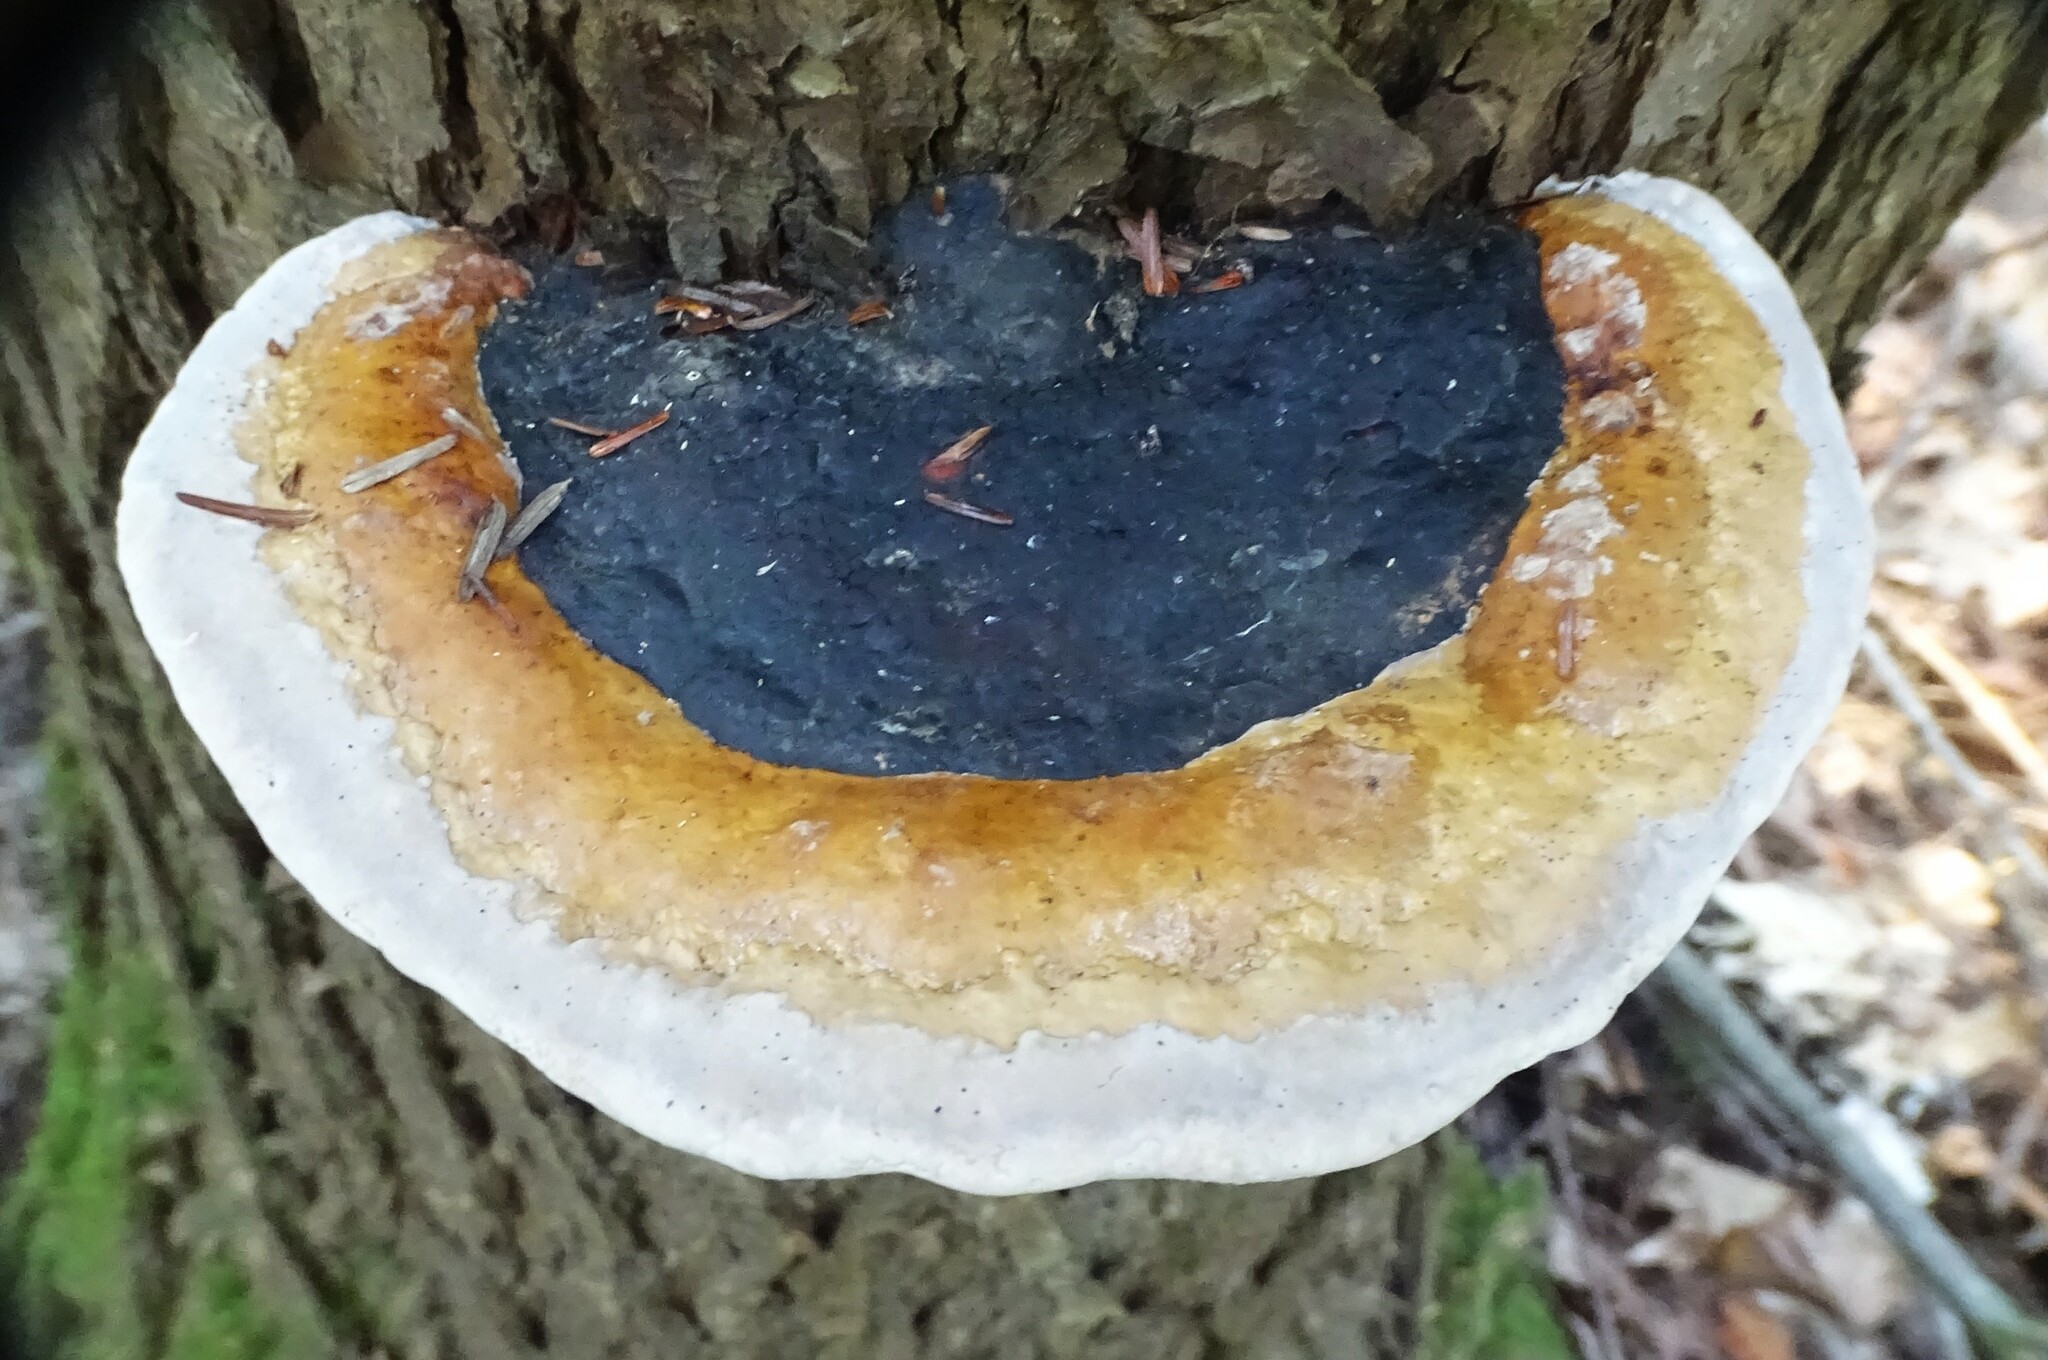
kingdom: Fungi
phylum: Basidiomycota
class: Agaricomycetes
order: Polyporales
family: Fomitopsidaceae
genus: Fomitopsis
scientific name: Fomitopsis mounceae
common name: Northern red belt
